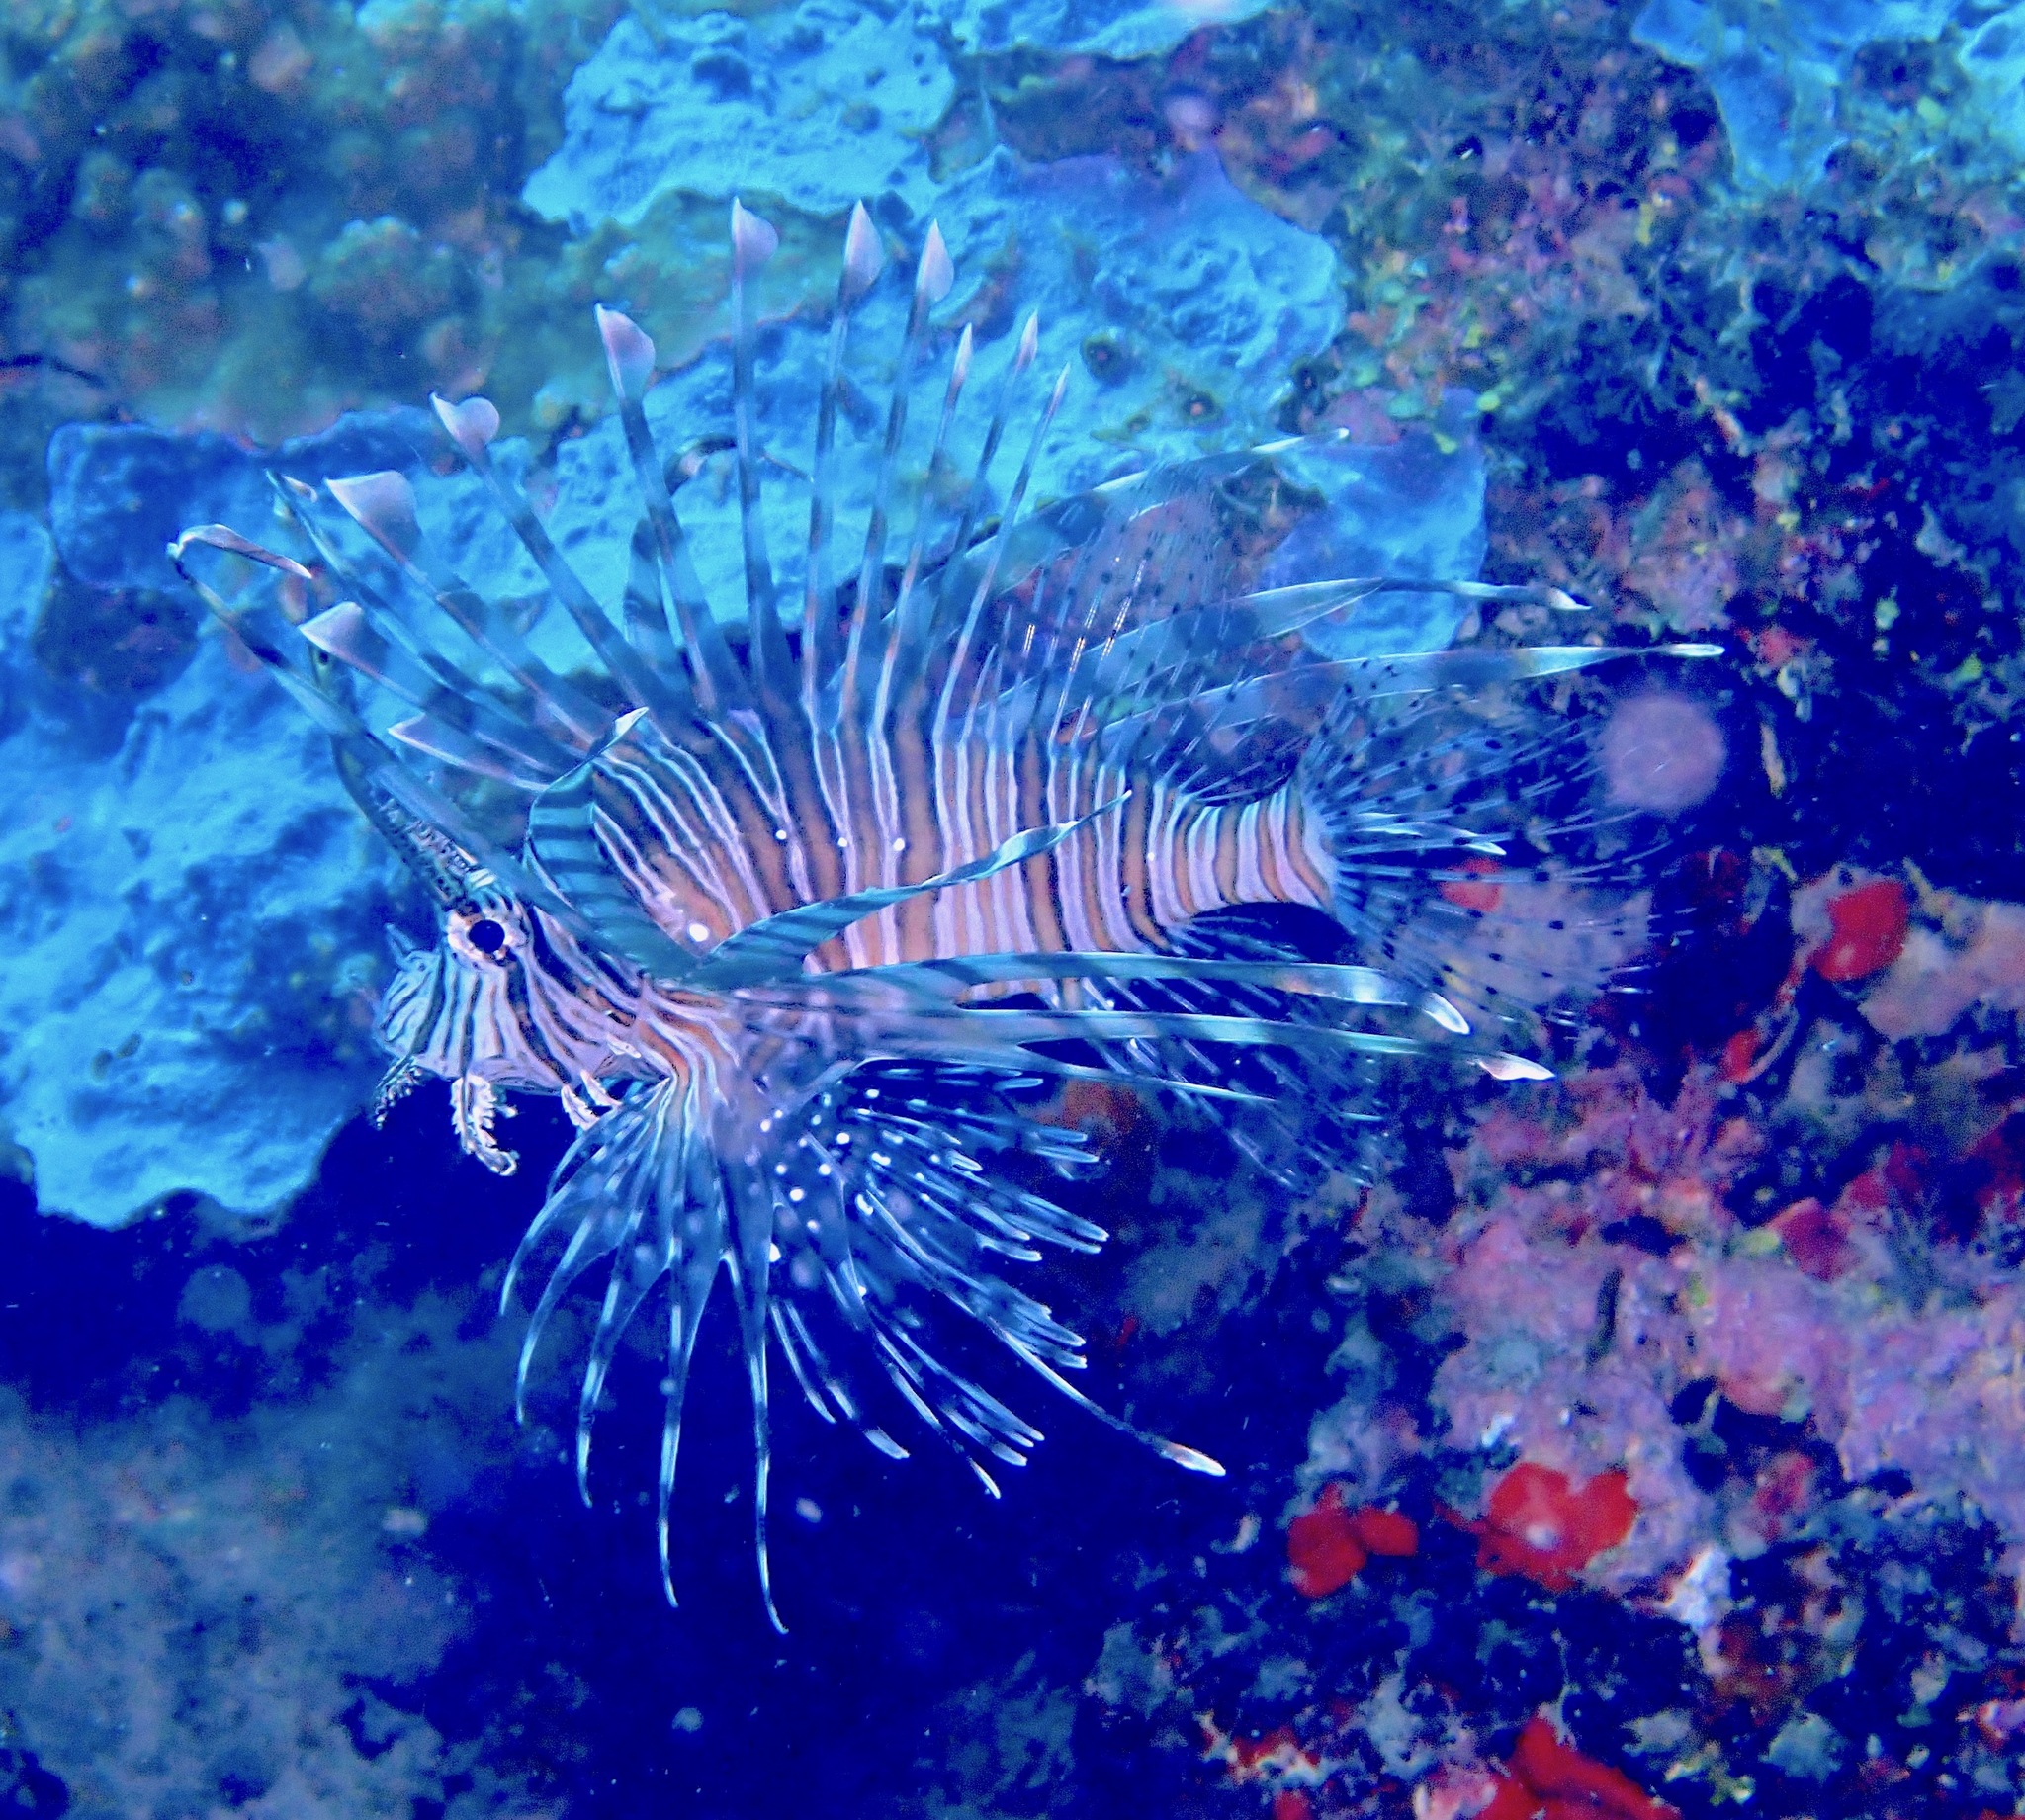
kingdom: Animalia
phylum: Chordata
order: Scorpaeniformes
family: Scorpaenidae
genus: Pterois
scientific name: Pterois volitans
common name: Lionfish
